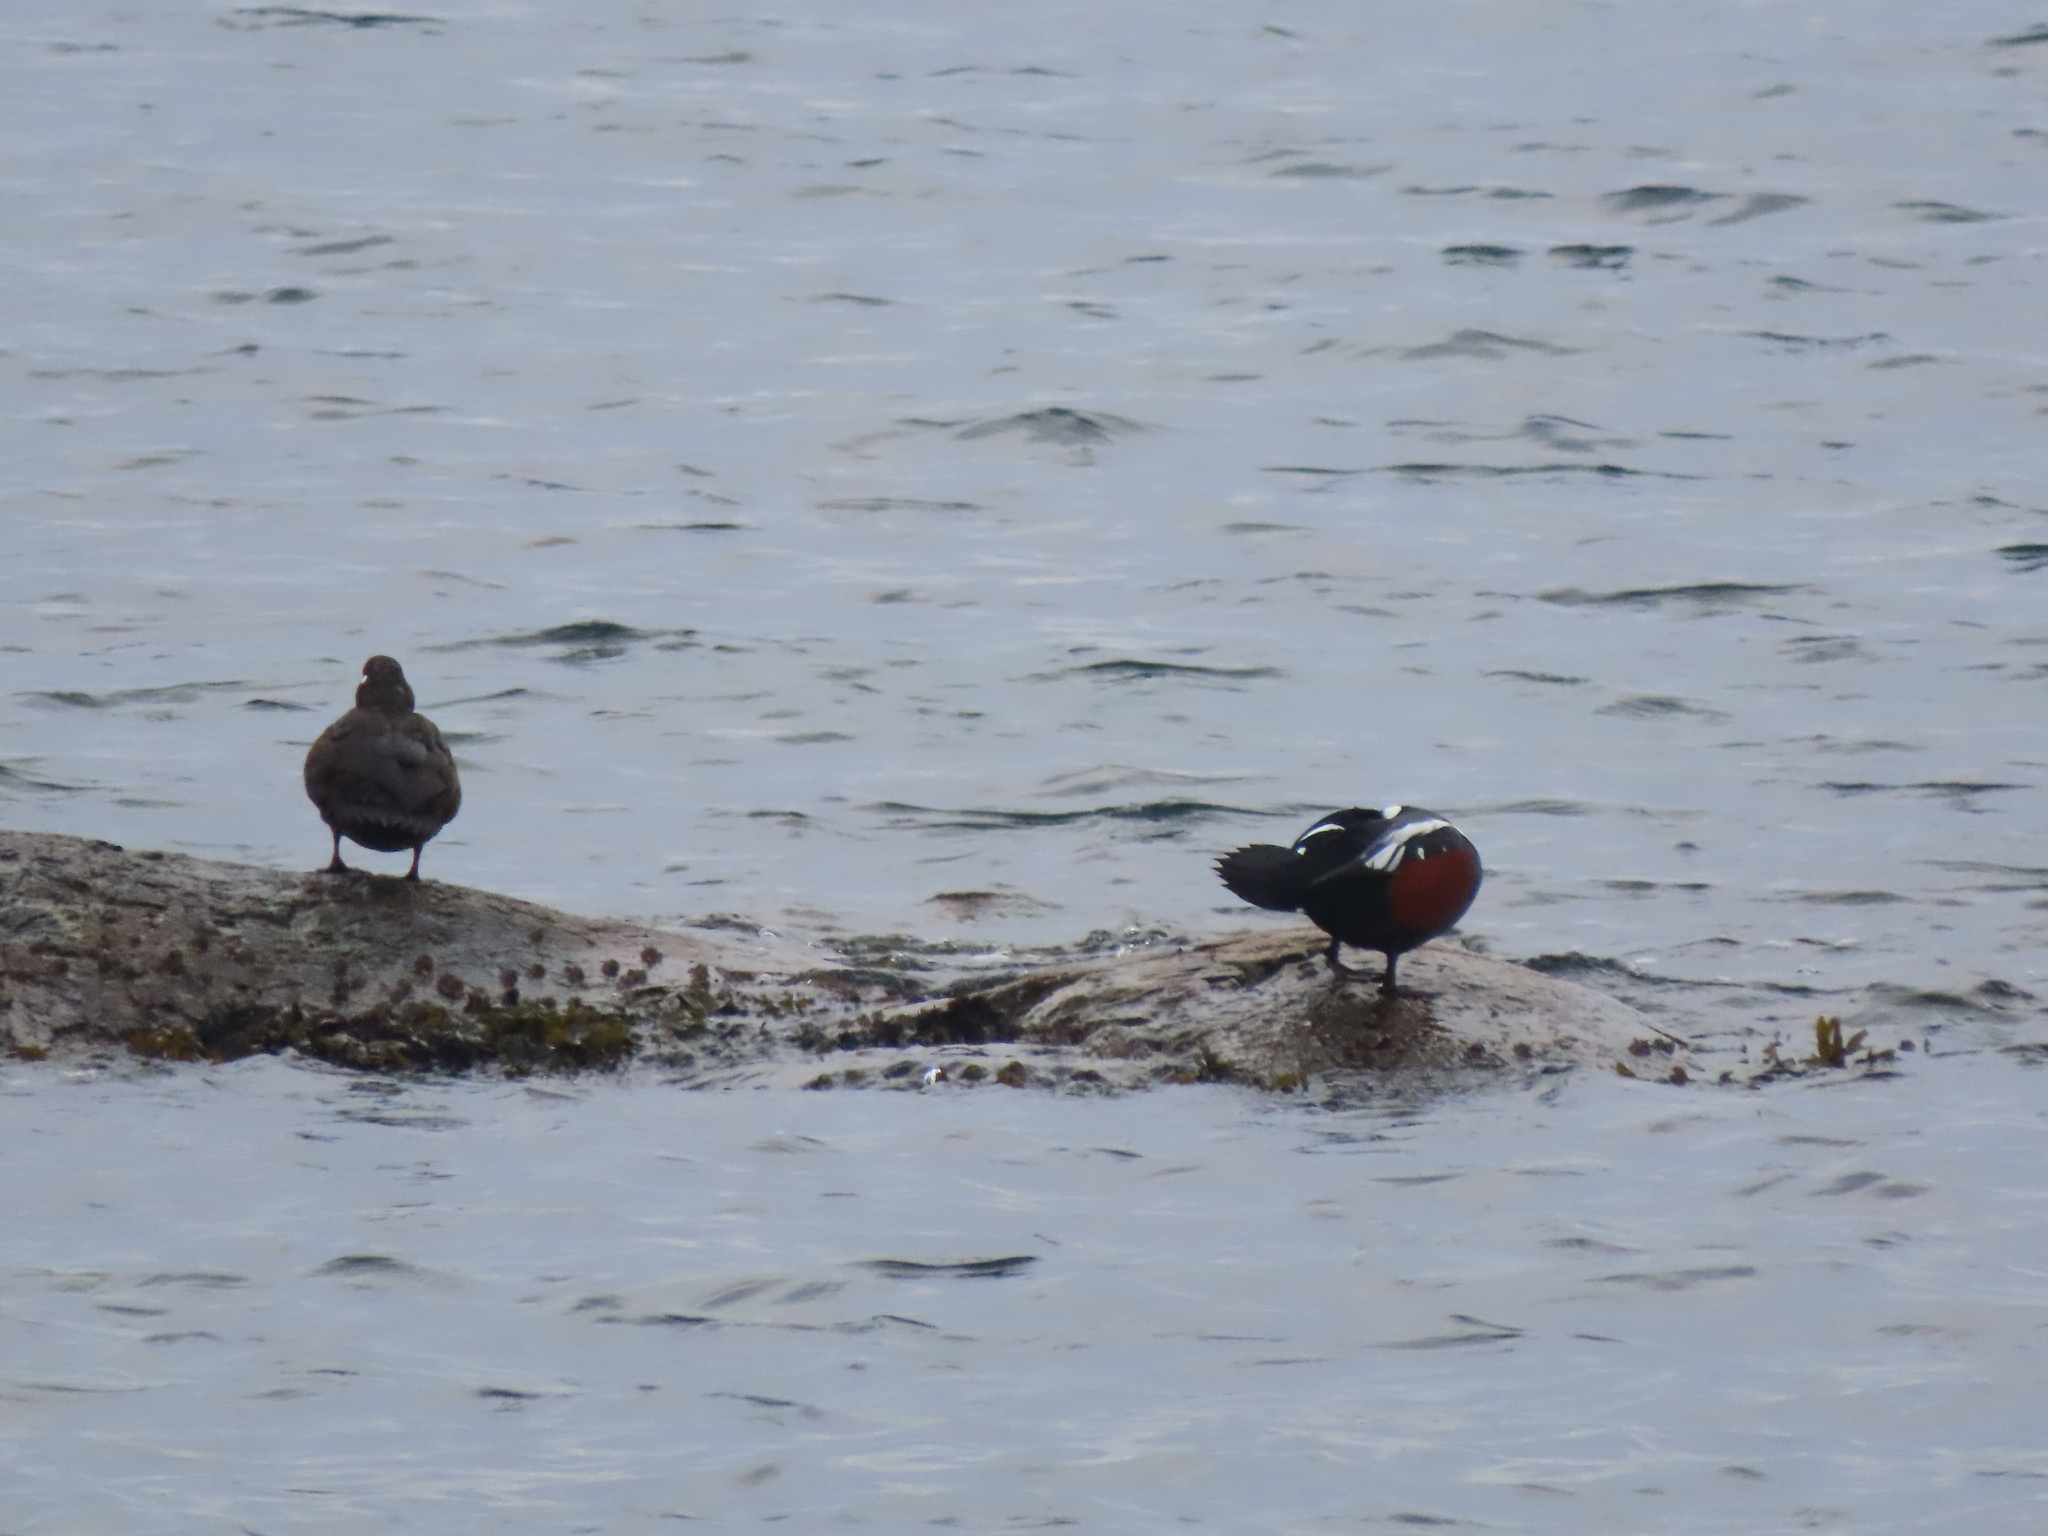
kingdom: Animalia
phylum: Chordata
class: Aves
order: Anseriformes
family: Anatidae
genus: Histrionicus
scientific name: Histrionicus histrionicus
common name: Harlequin duck
